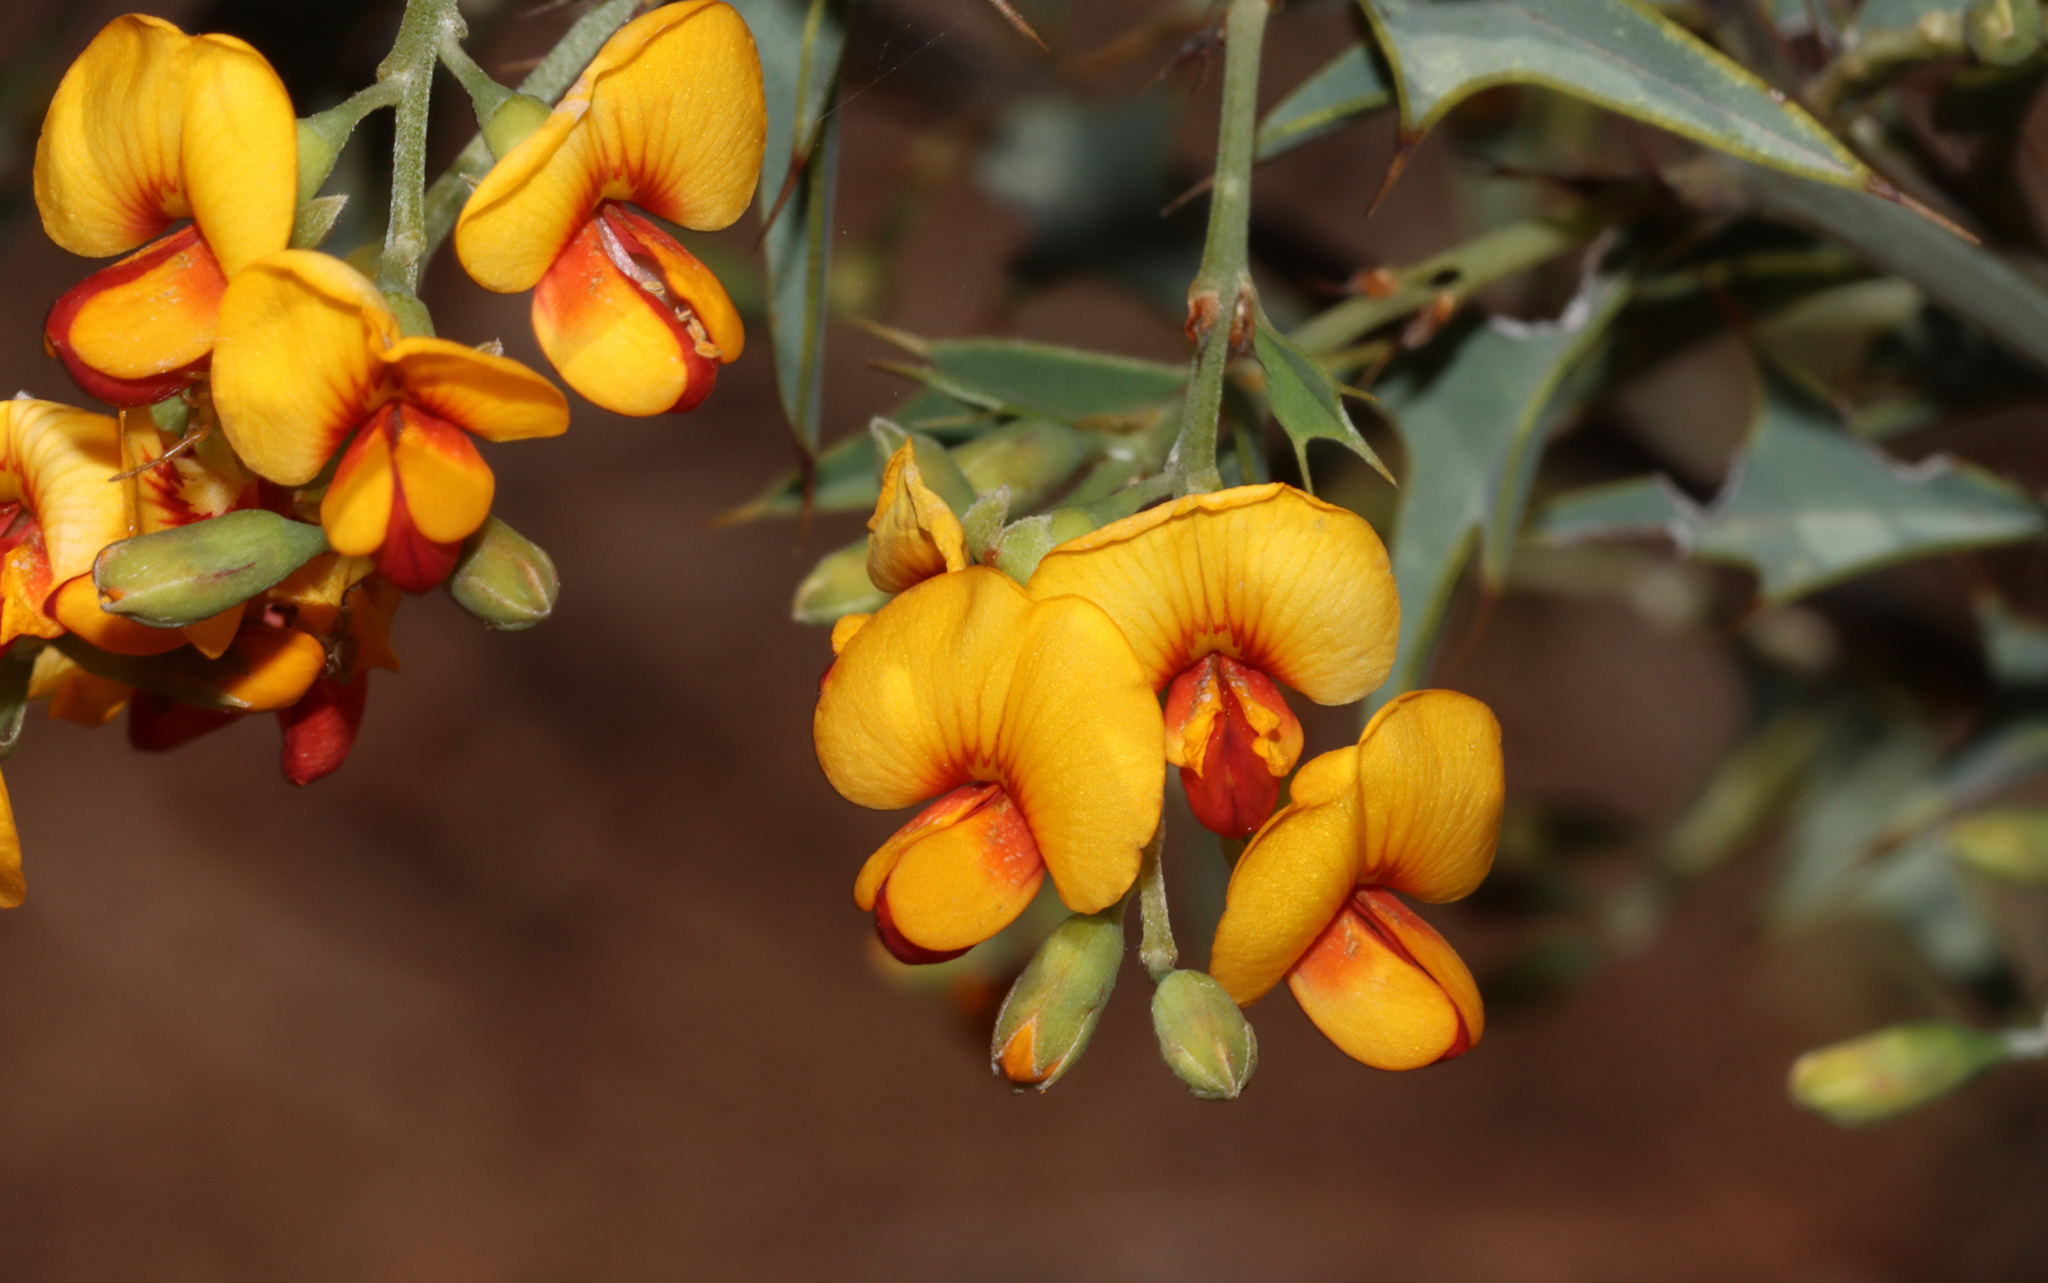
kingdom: Plantae
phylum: Tracheophyta
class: Magnoliopsida
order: Fabales
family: Fabaceae
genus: Gastrolobium
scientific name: Gastrolobium trilobum
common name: Bullock poison
